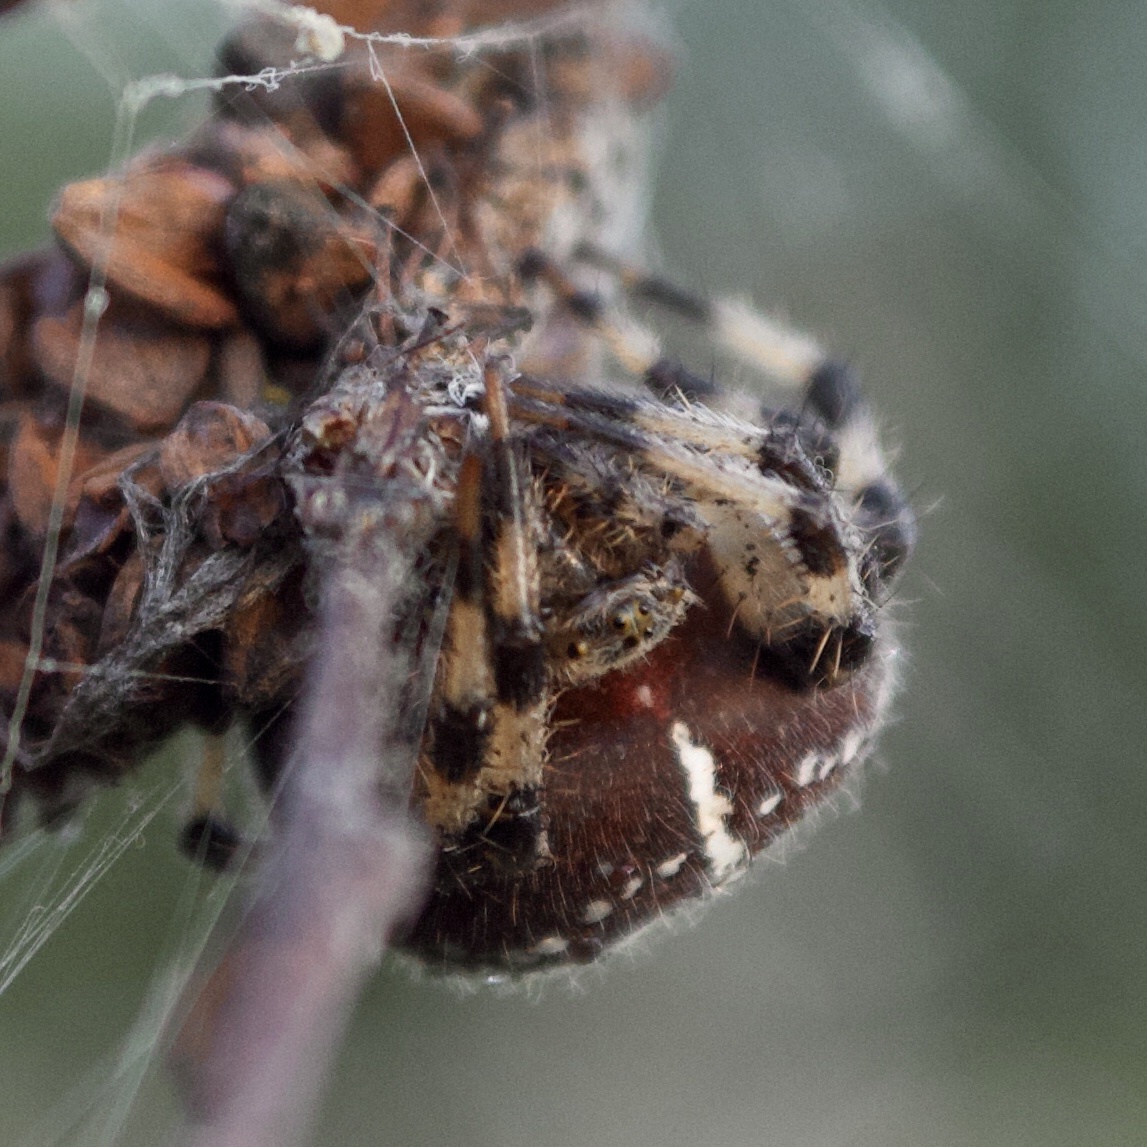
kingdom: Animalia
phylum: Arthropoda
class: Arachnida
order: Araneae
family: Araneidae
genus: Araneus
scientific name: Araneus quadratus
